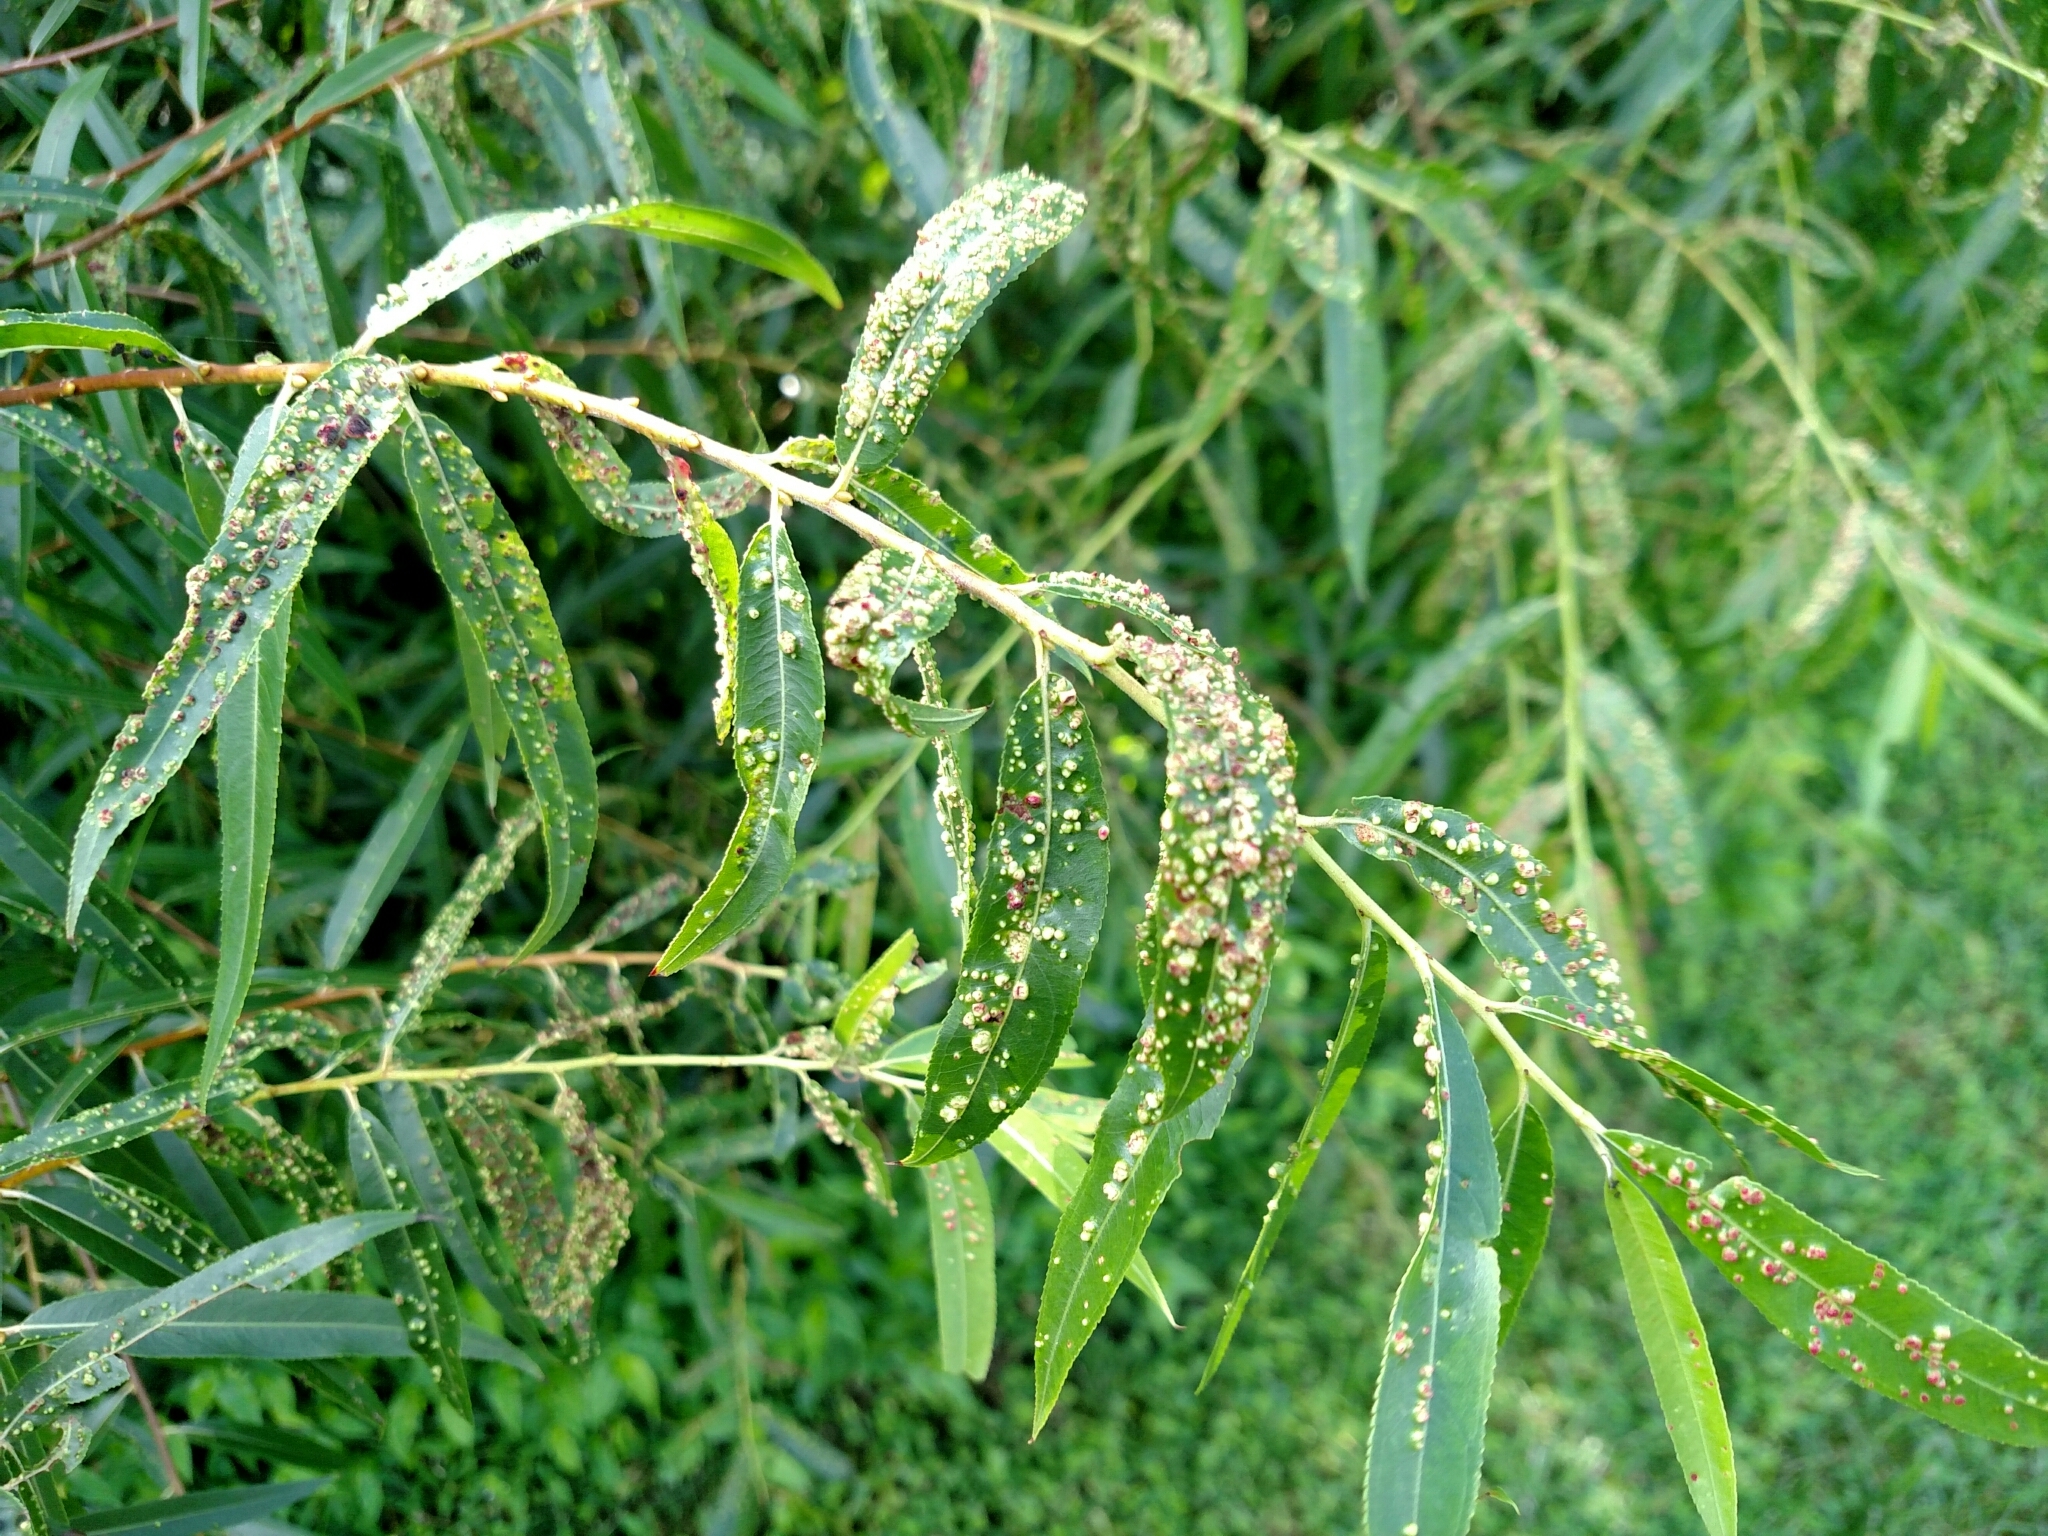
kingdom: Animalia
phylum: Arthropoda
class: Arachnida
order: Trombidiformes
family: Eriophyidae
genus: Aculus
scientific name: Aculus tetanothrix
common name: Willow bead gall mite
